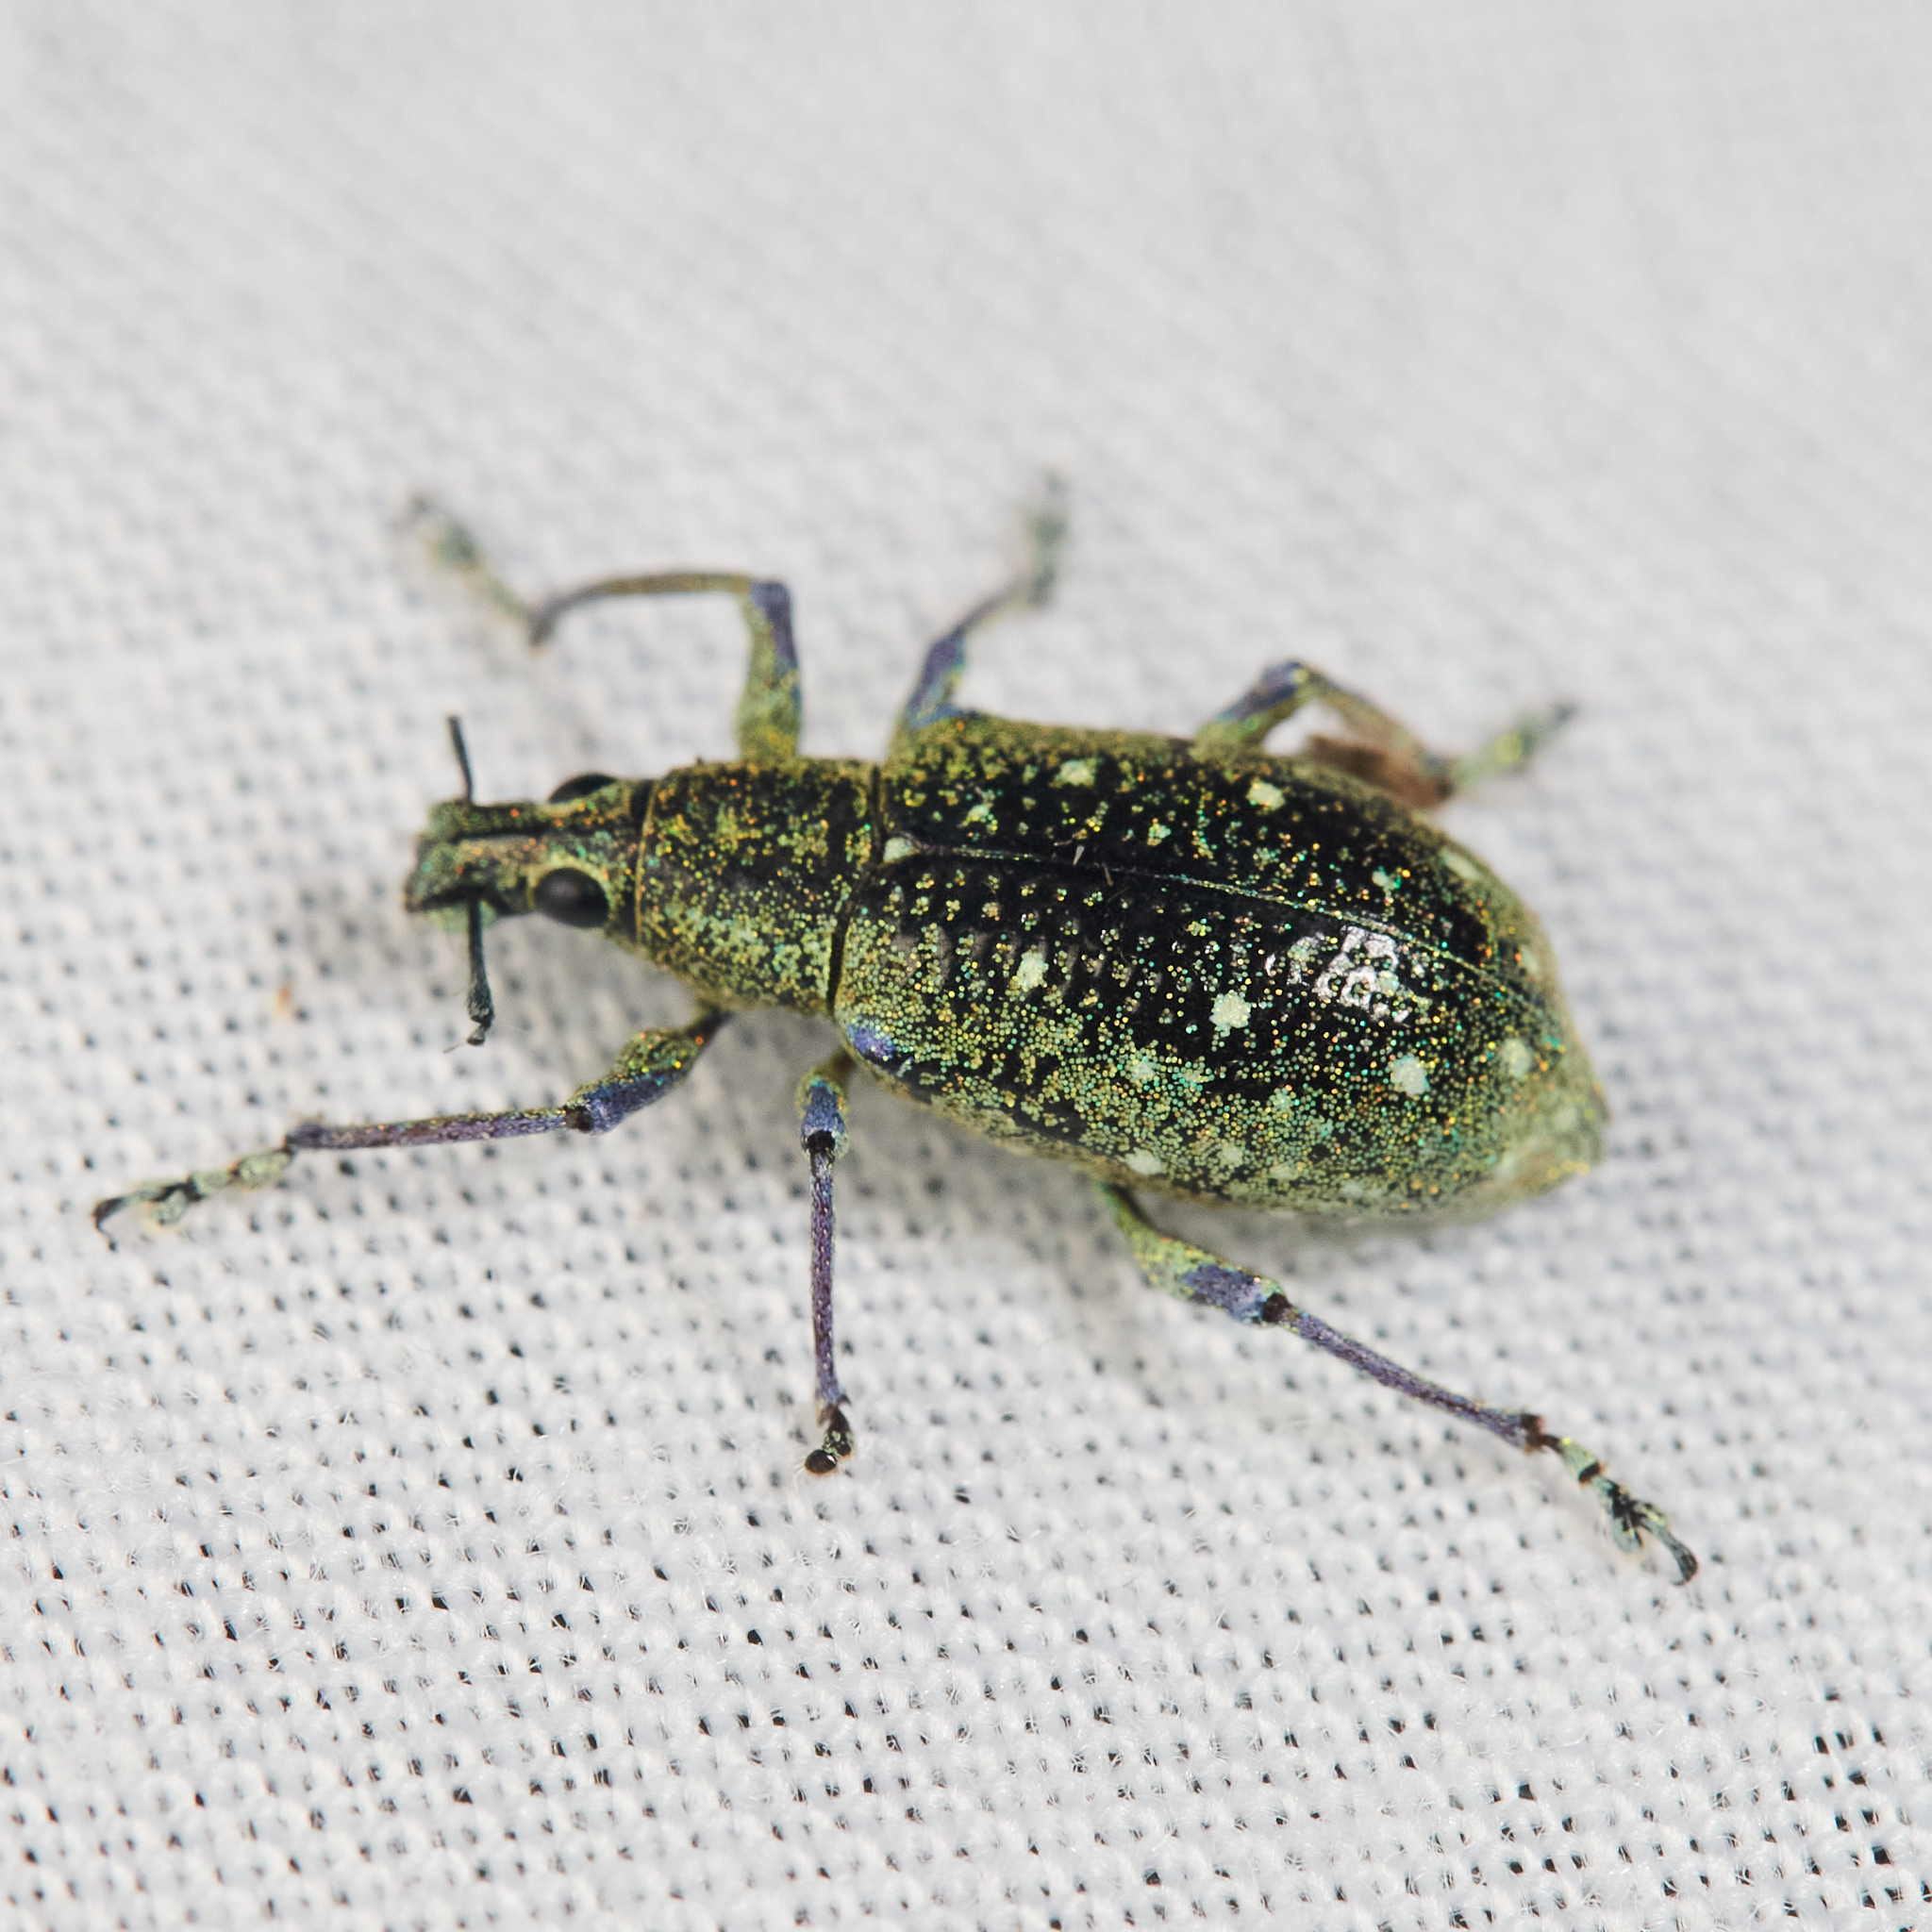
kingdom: Animalia
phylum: Arthropoda
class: Insecta
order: Coleoptera
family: Curculionidae
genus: Exophthalmus
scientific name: Exophthalmus jekelianus
